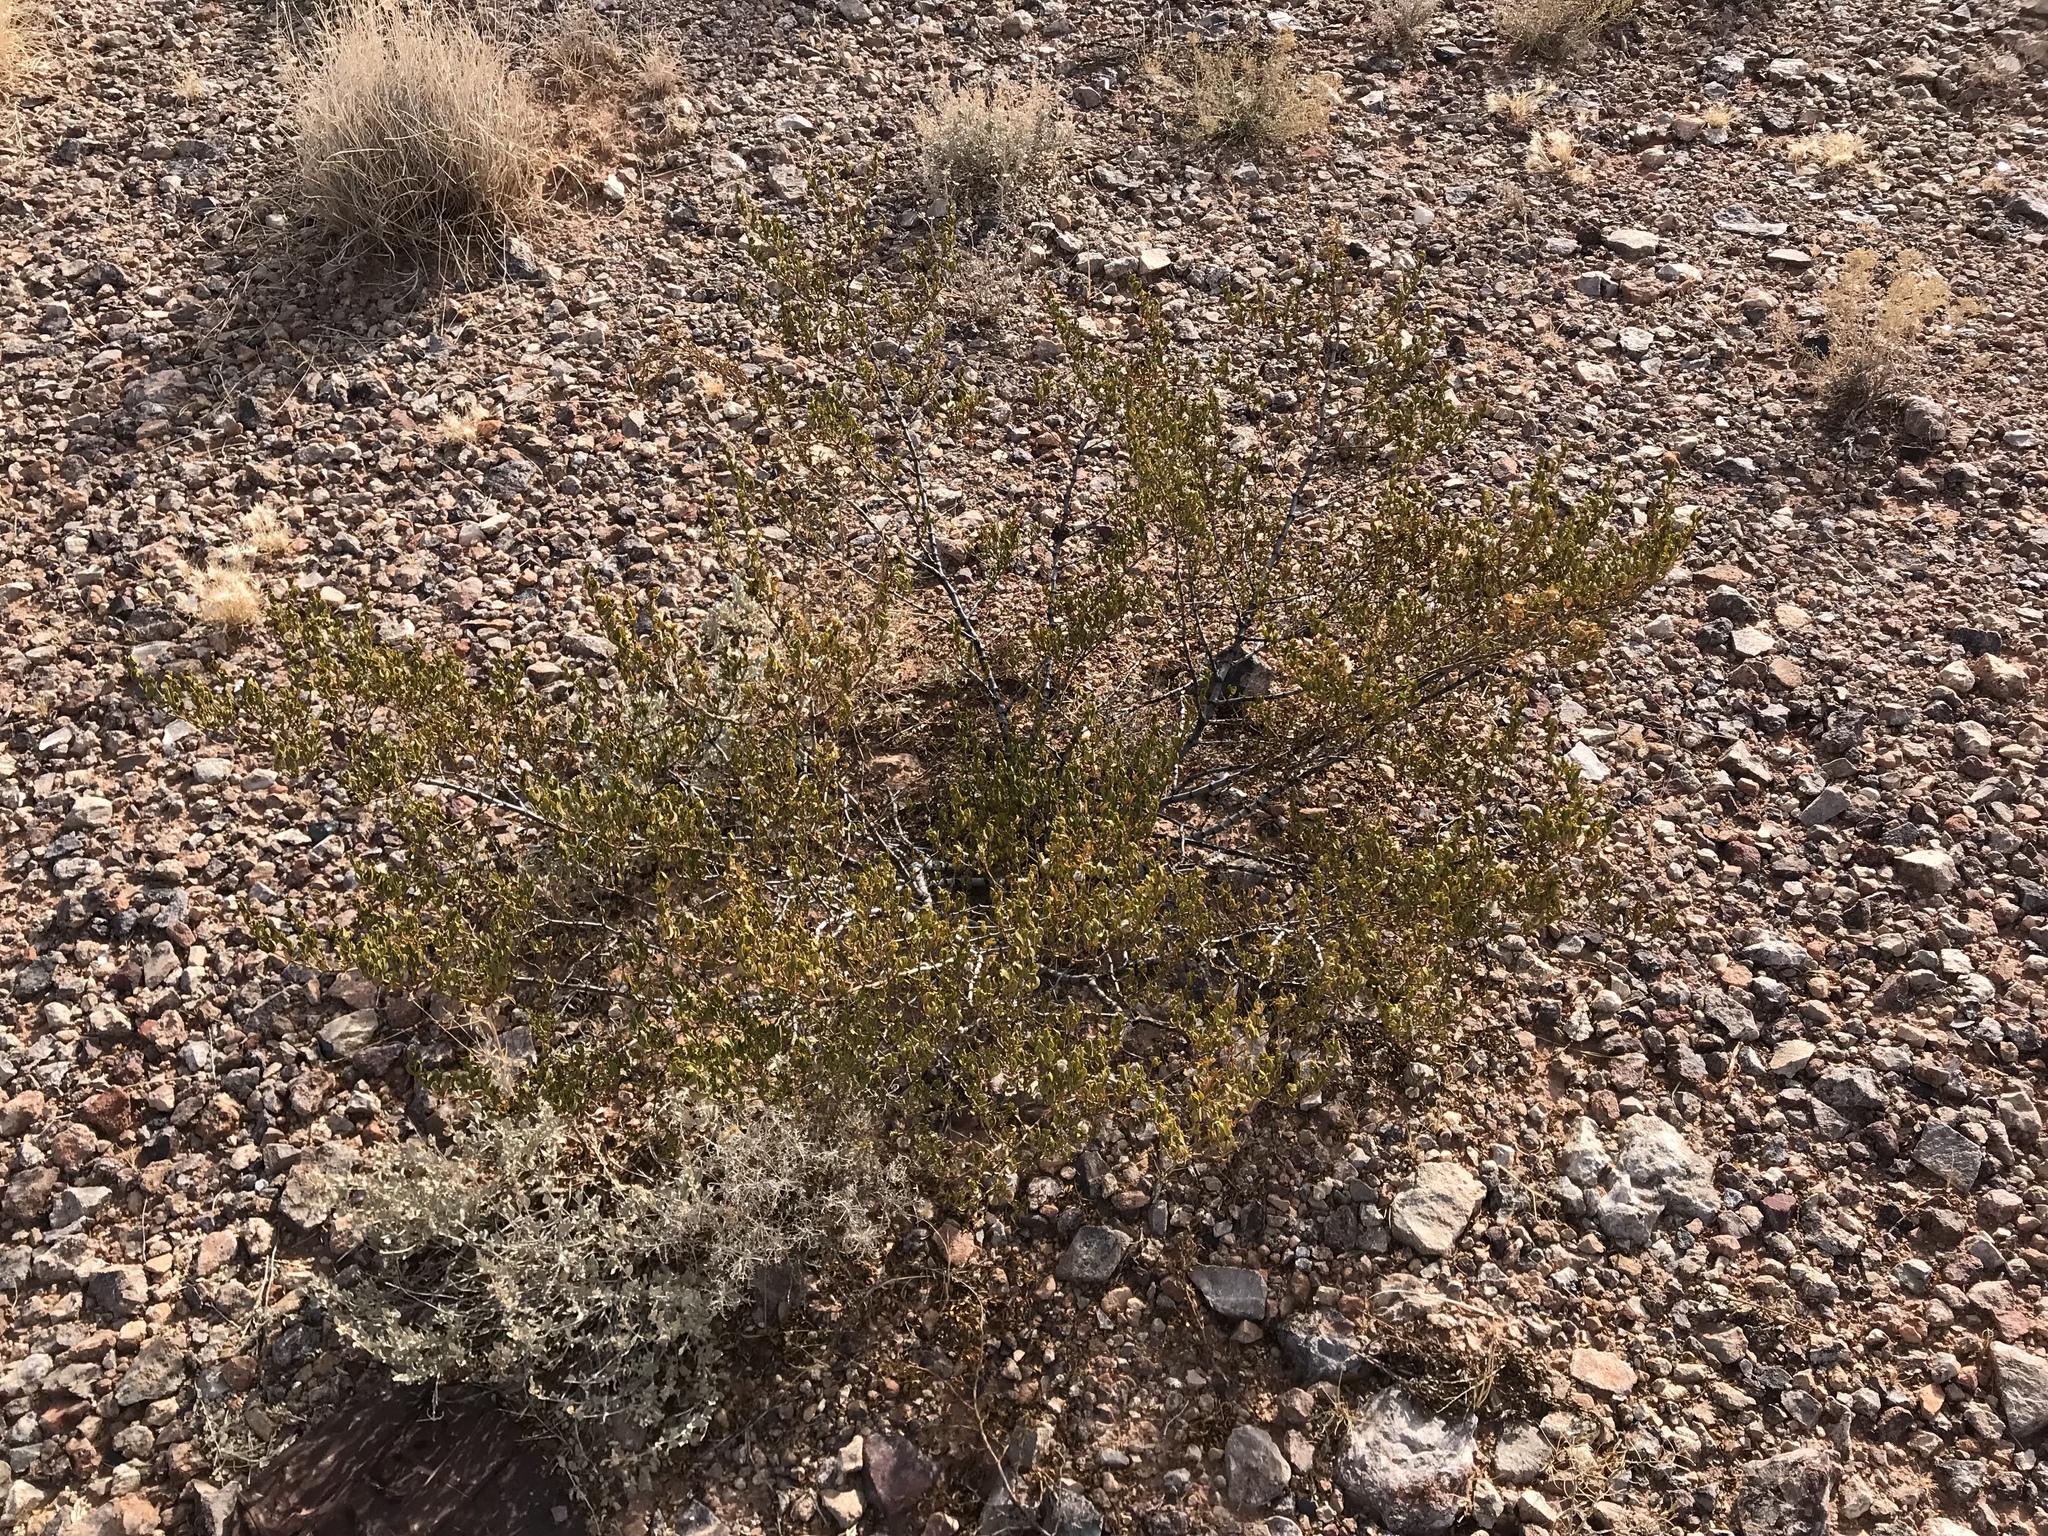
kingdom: Plantae
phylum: Tracheophyta
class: Magnoliopsida
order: Zygophyllales
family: Zygophyllaceae
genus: Larrea
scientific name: Larrea tridentata
